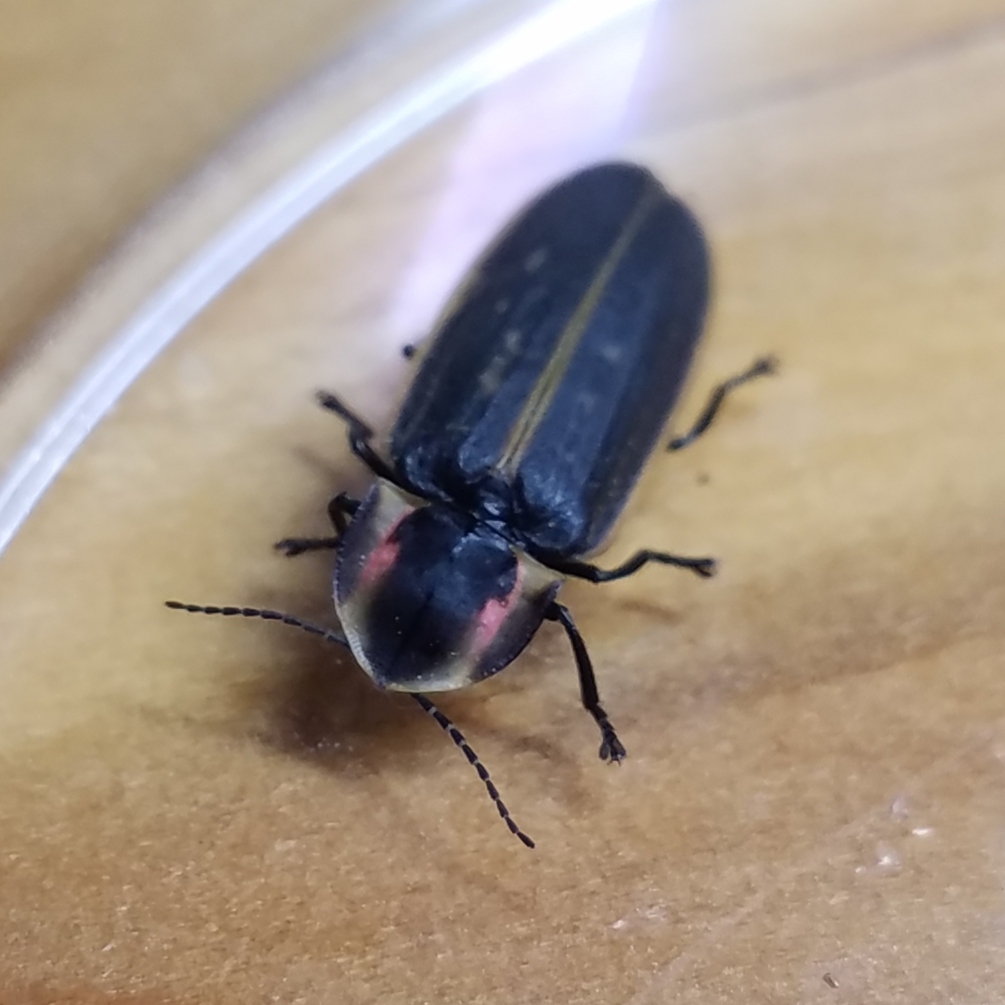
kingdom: Animalia
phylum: Arthropoda
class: Insecta
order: Coleoptera
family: Lampyridae
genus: Pyractomena
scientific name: Pyractomena borealis
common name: Northern firefly
